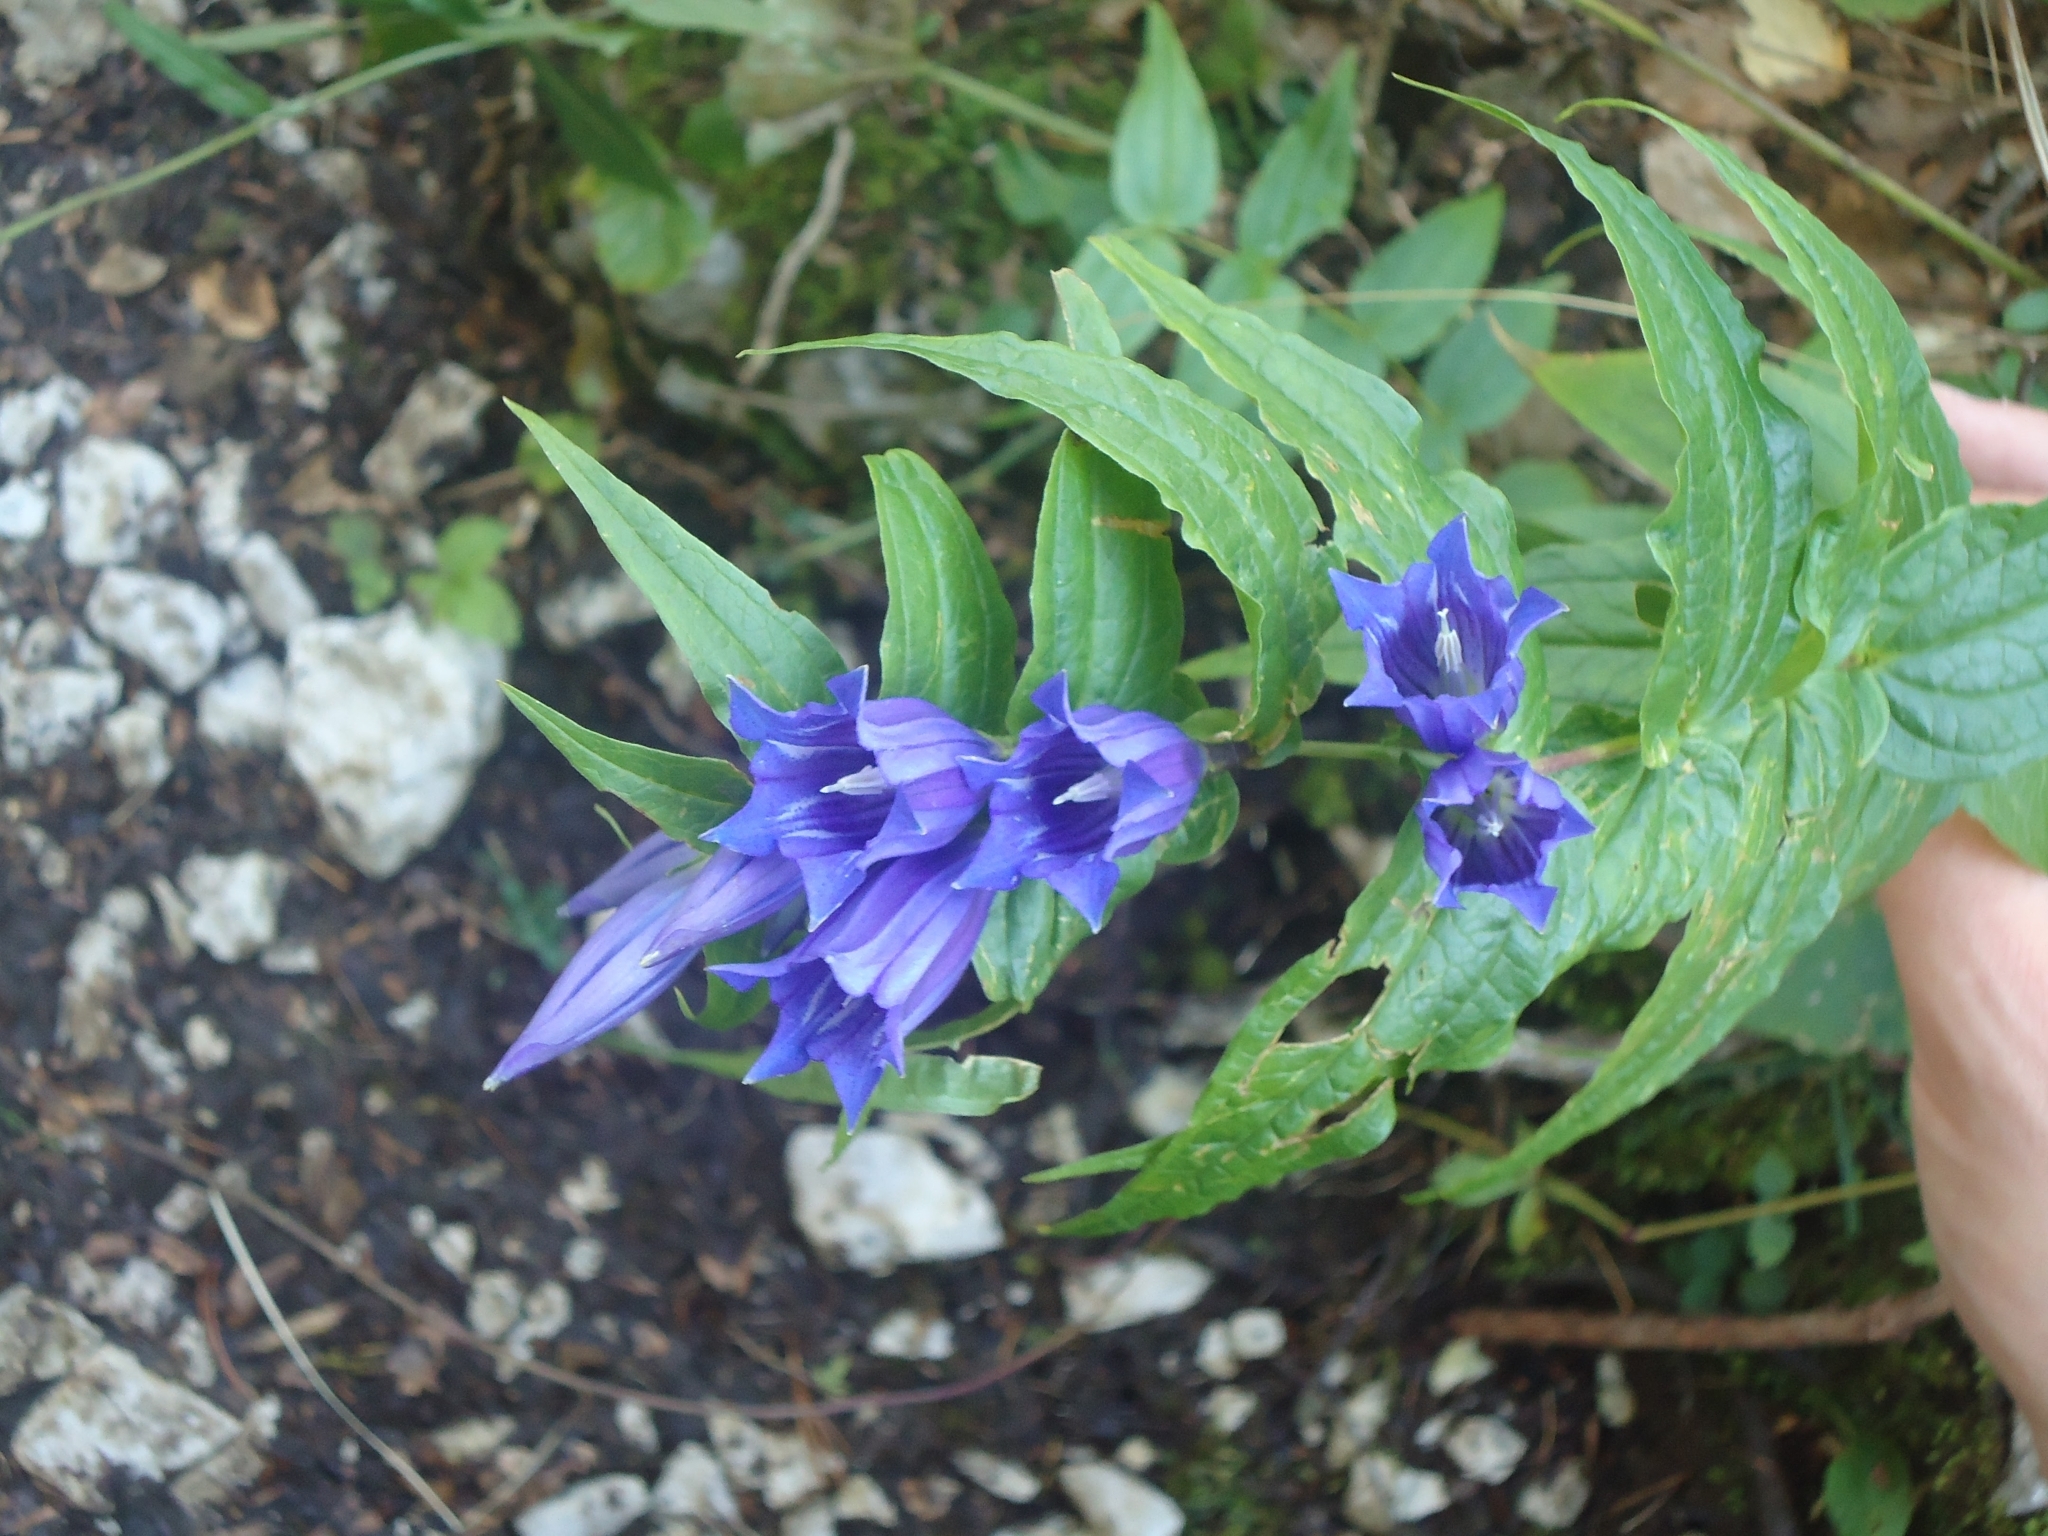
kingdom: Plantae
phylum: Tracheophyta
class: Magnoliopsida
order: Gentianales
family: Gentianaceae
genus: Gentiana
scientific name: Gentiana asclepiadea
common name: Willow gentian
